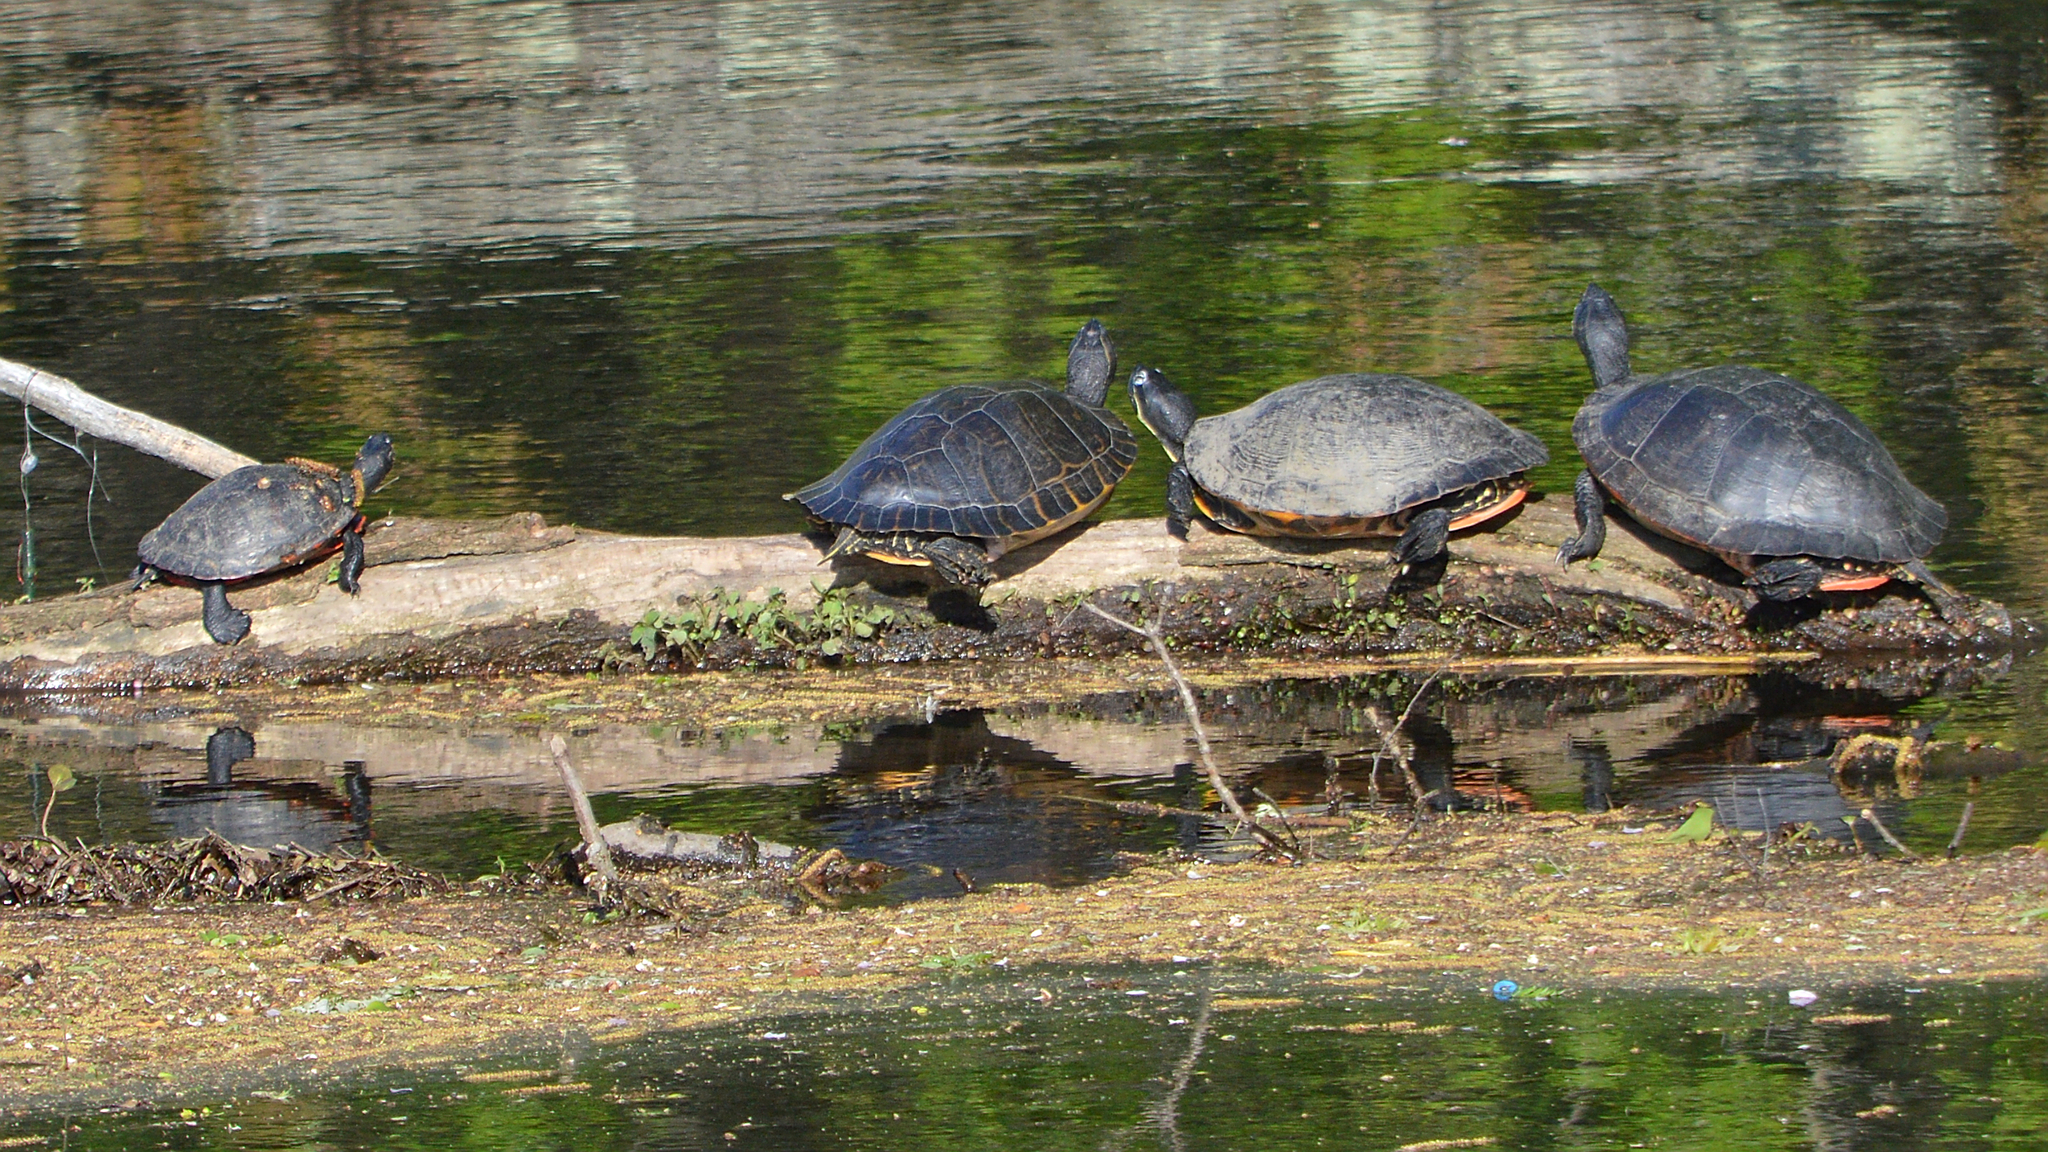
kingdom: Animalia
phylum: Chordata
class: Testudines
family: Emydidae
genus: Pseudemys
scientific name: Pseudemys rubriventris
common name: American red-bellied turtle
